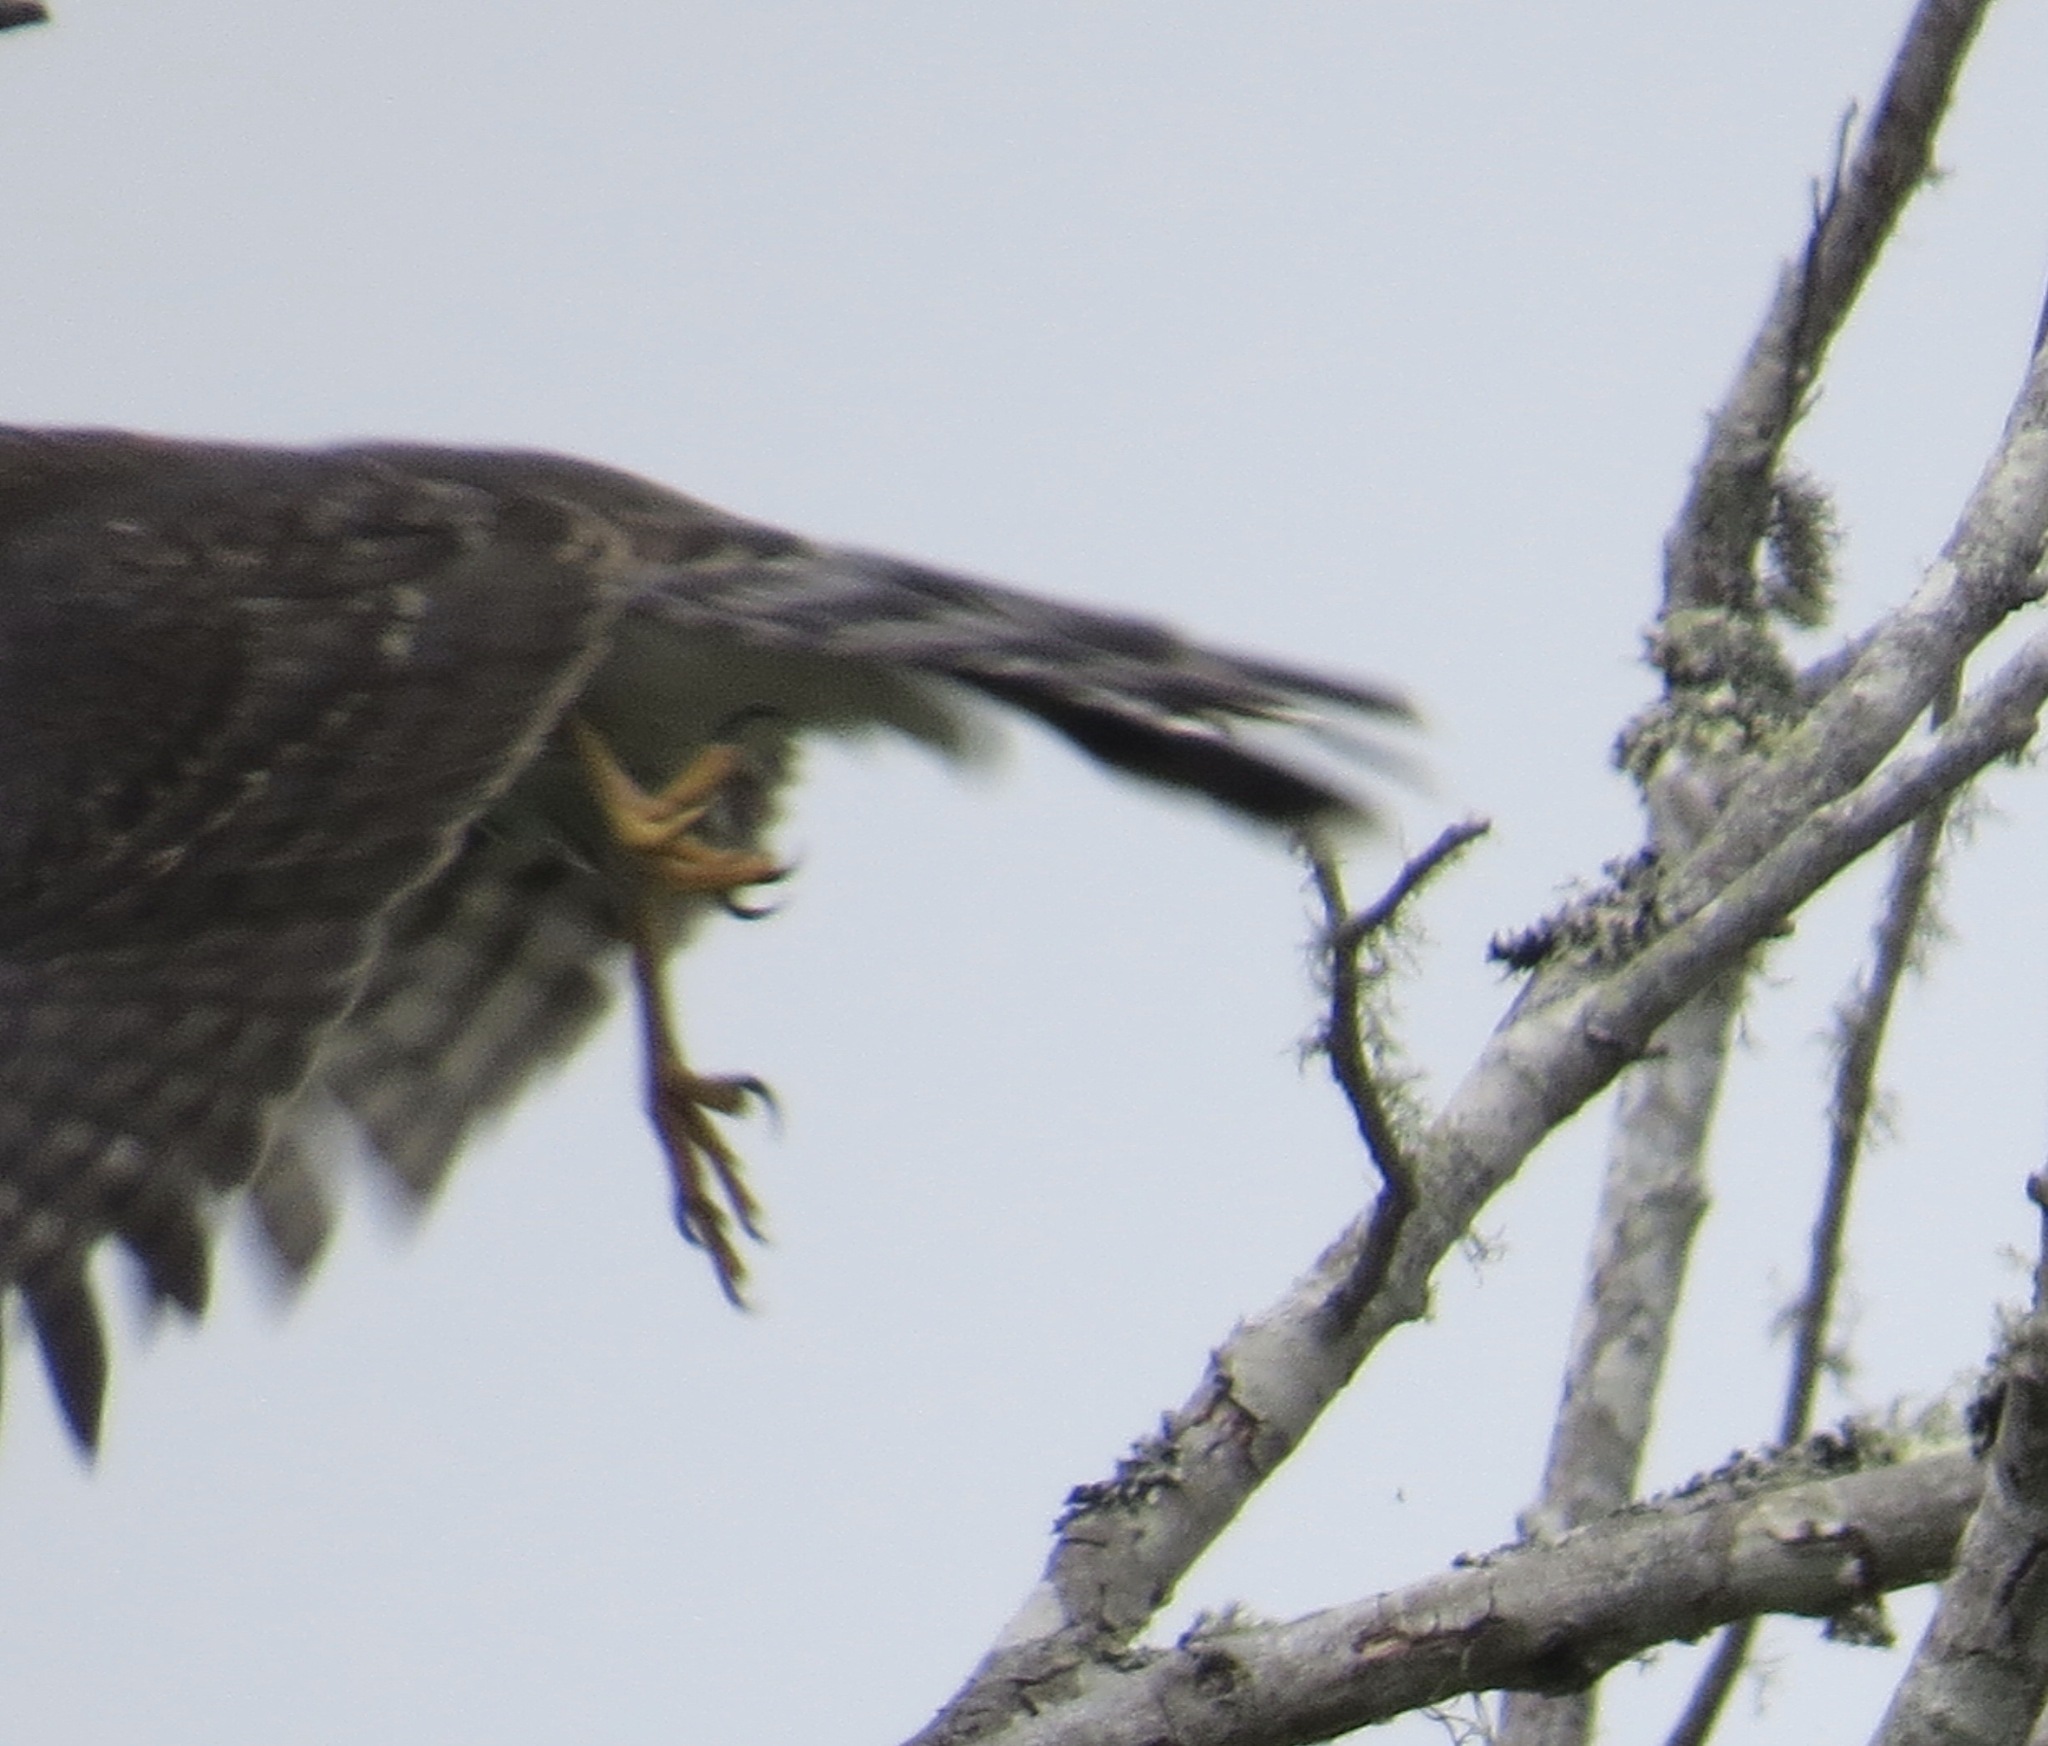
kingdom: Animalia
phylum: Chordata
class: Aves
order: Accipitriformes
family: Accipitridae
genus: Accipiter
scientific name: Accipiter cooperii
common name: Cooper's hawk
